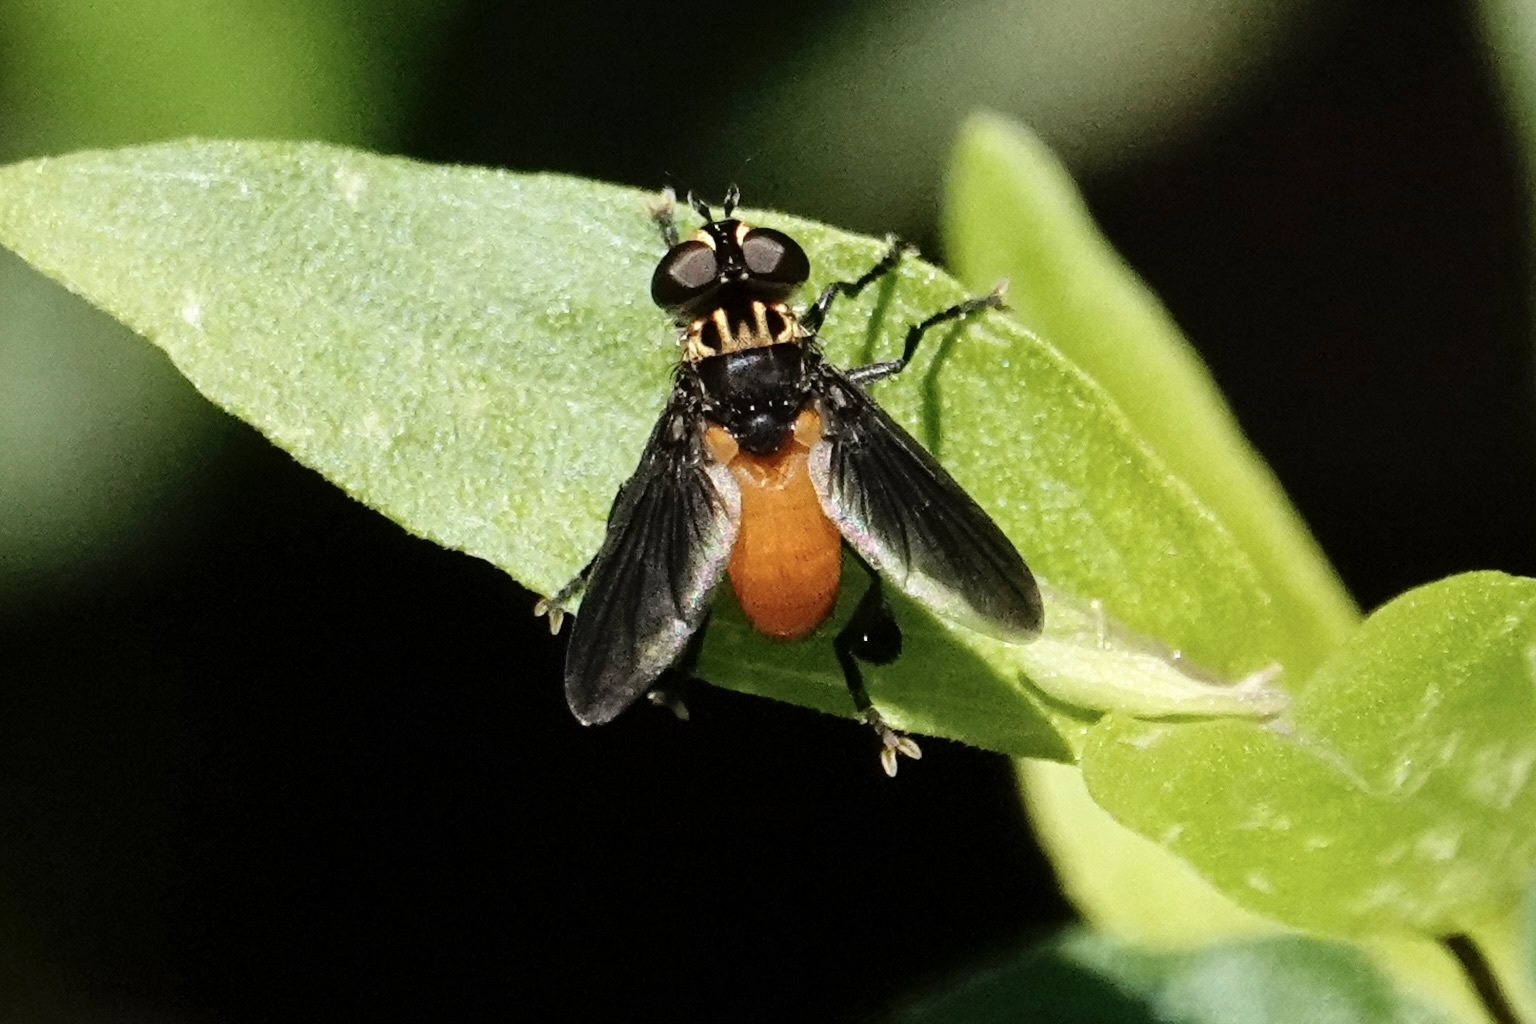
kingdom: Animalia
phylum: Arthropoda
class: Insecta
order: Diptera
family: Tachinidae
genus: Trichopoda
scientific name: Trichopoda pennipes
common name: Tachinid fly
